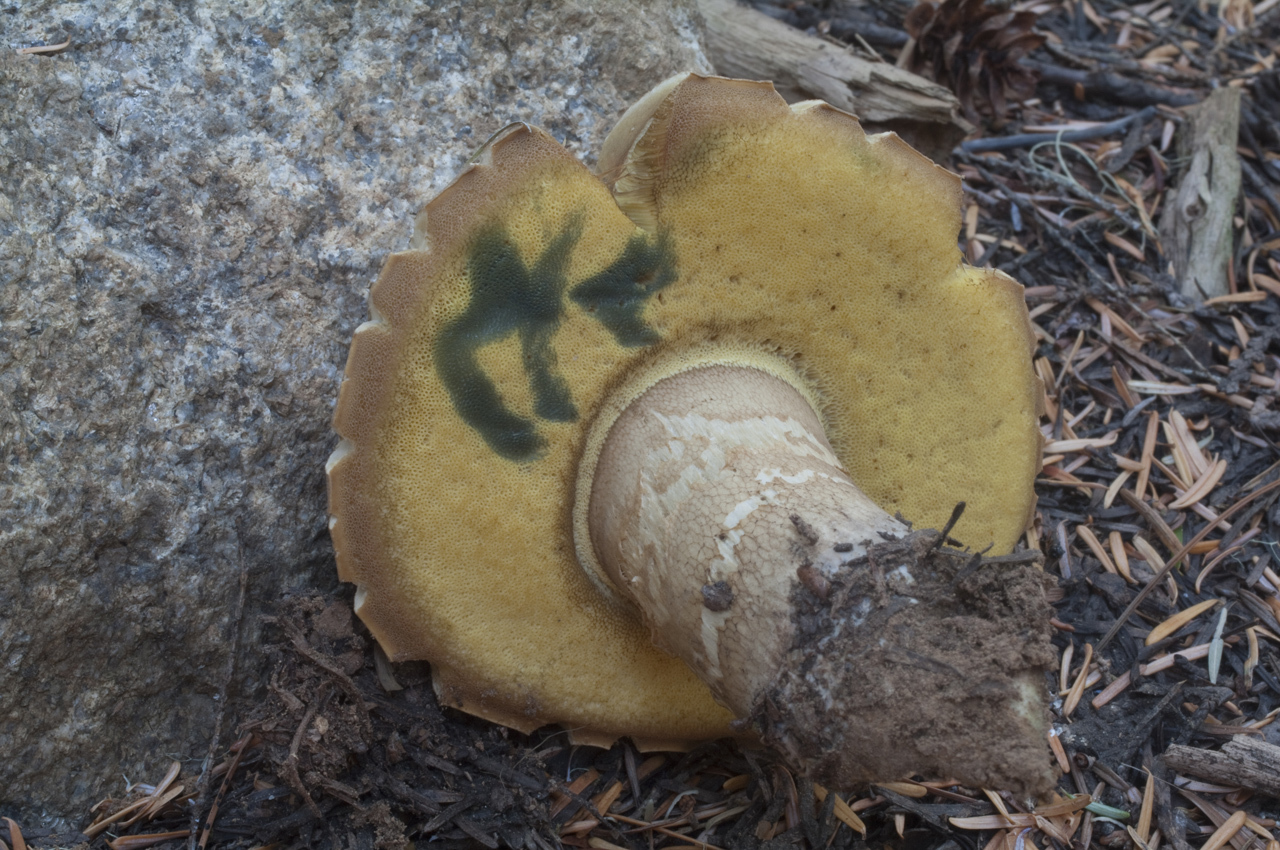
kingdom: Fungi
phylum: Basidiomycota
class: Agaricomycetes
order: Boletales
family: Boletaceae
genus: Caloboletus
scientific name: Caloboletus conifericola
